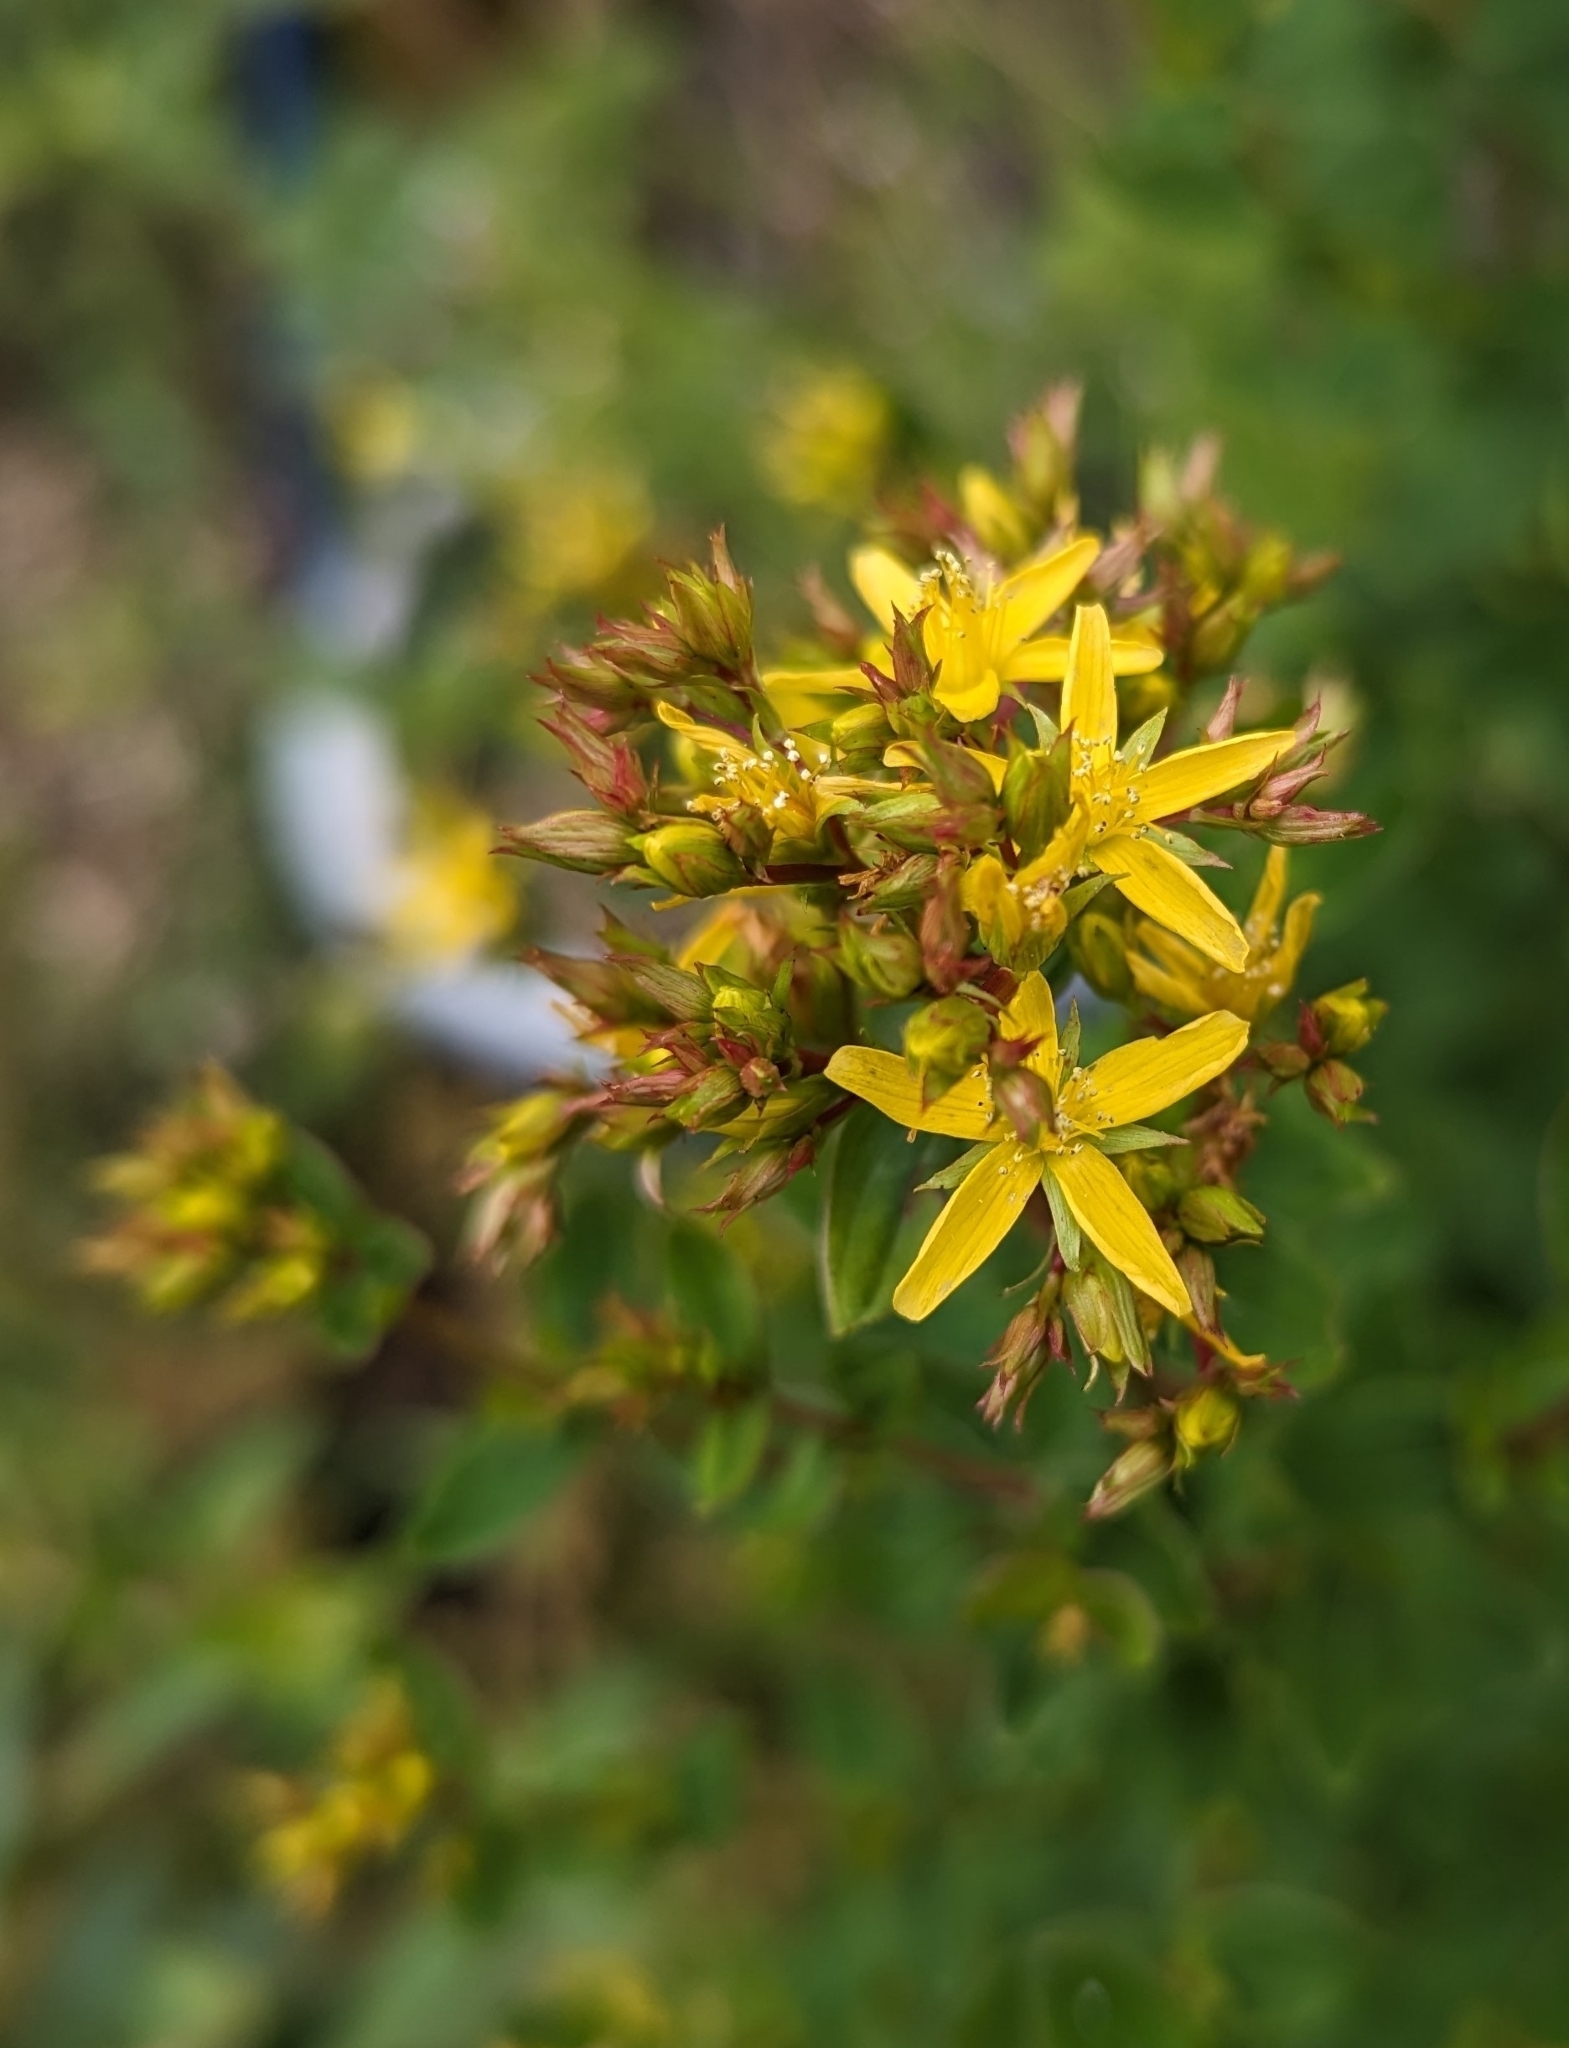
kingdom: Plantae
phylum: Tracheophyta
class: Magnoliopsida
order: Malpighiales
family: Hypericaceae
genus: Hypericum
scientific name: Hypericum tetrapterum
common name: Square-stalked st. john's-wort
